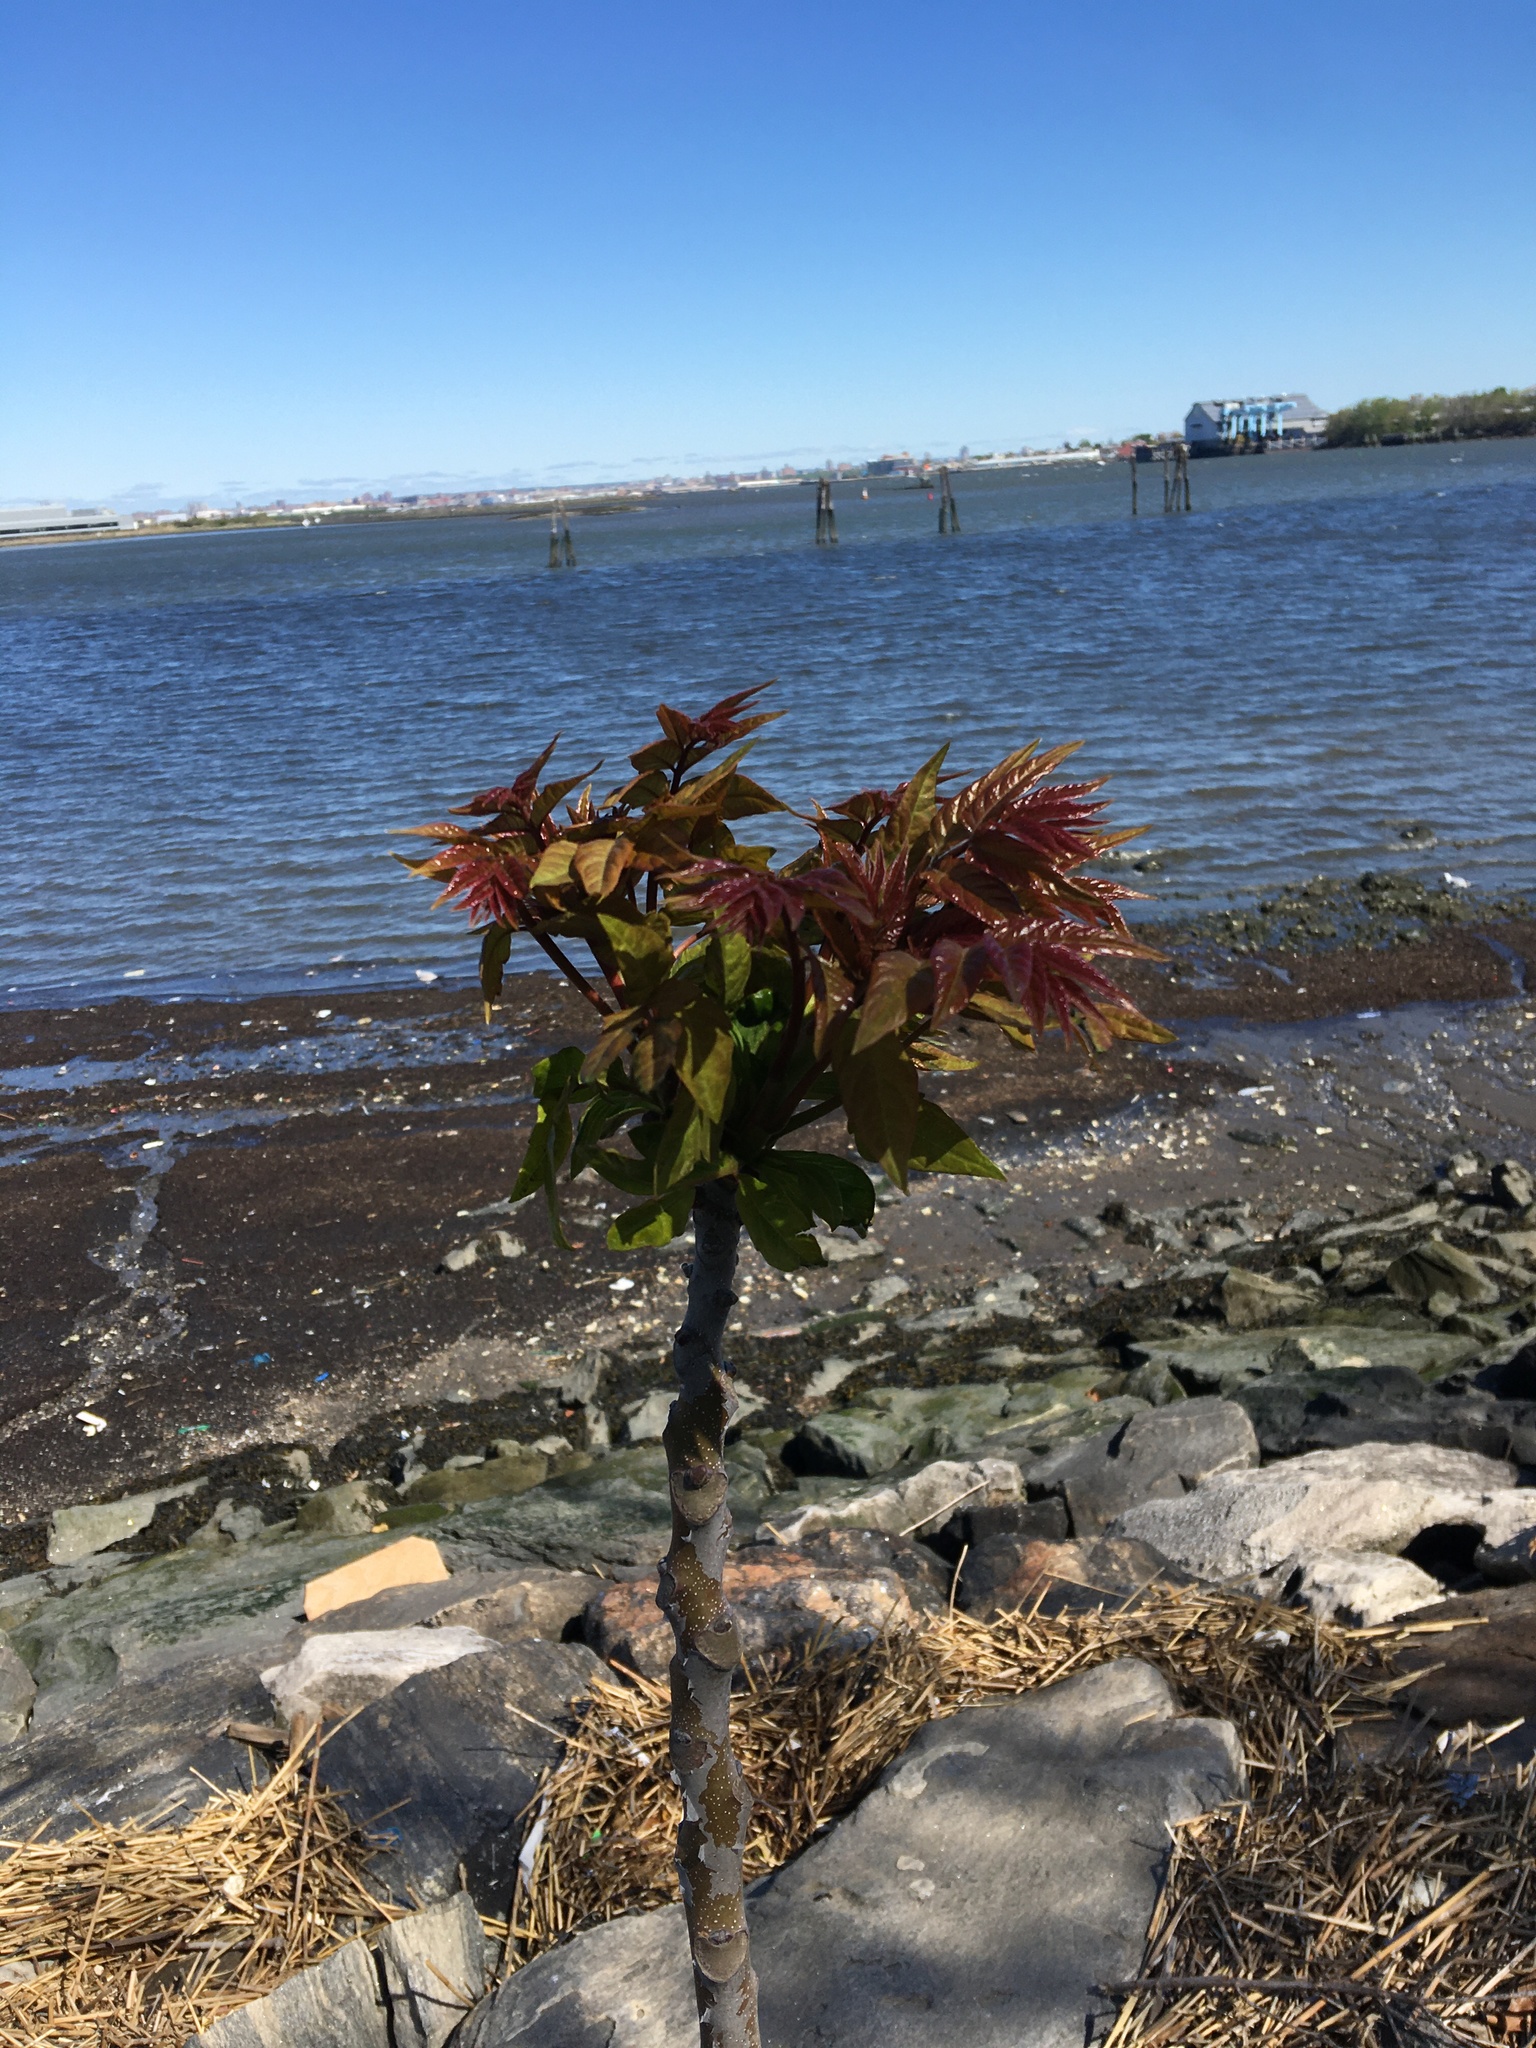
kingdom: Plantae
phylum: Tracheophyta
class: Magnoliopsida
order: Sapindales
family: Simaroubaceae
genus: Ailanthus
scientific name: Ailanthus altissima
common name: Tree-of-heaven
